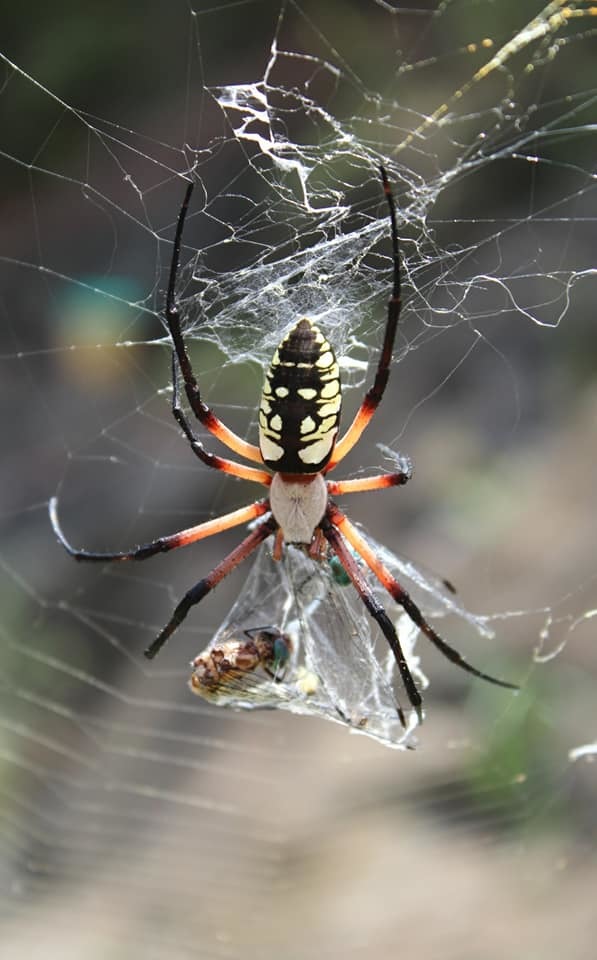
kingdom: Animalia
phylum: Arthropoda
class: Arachnida
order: Araneae
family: Araneidae
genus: Argiope
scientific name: Argiope aurantia
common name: Orb weavers
